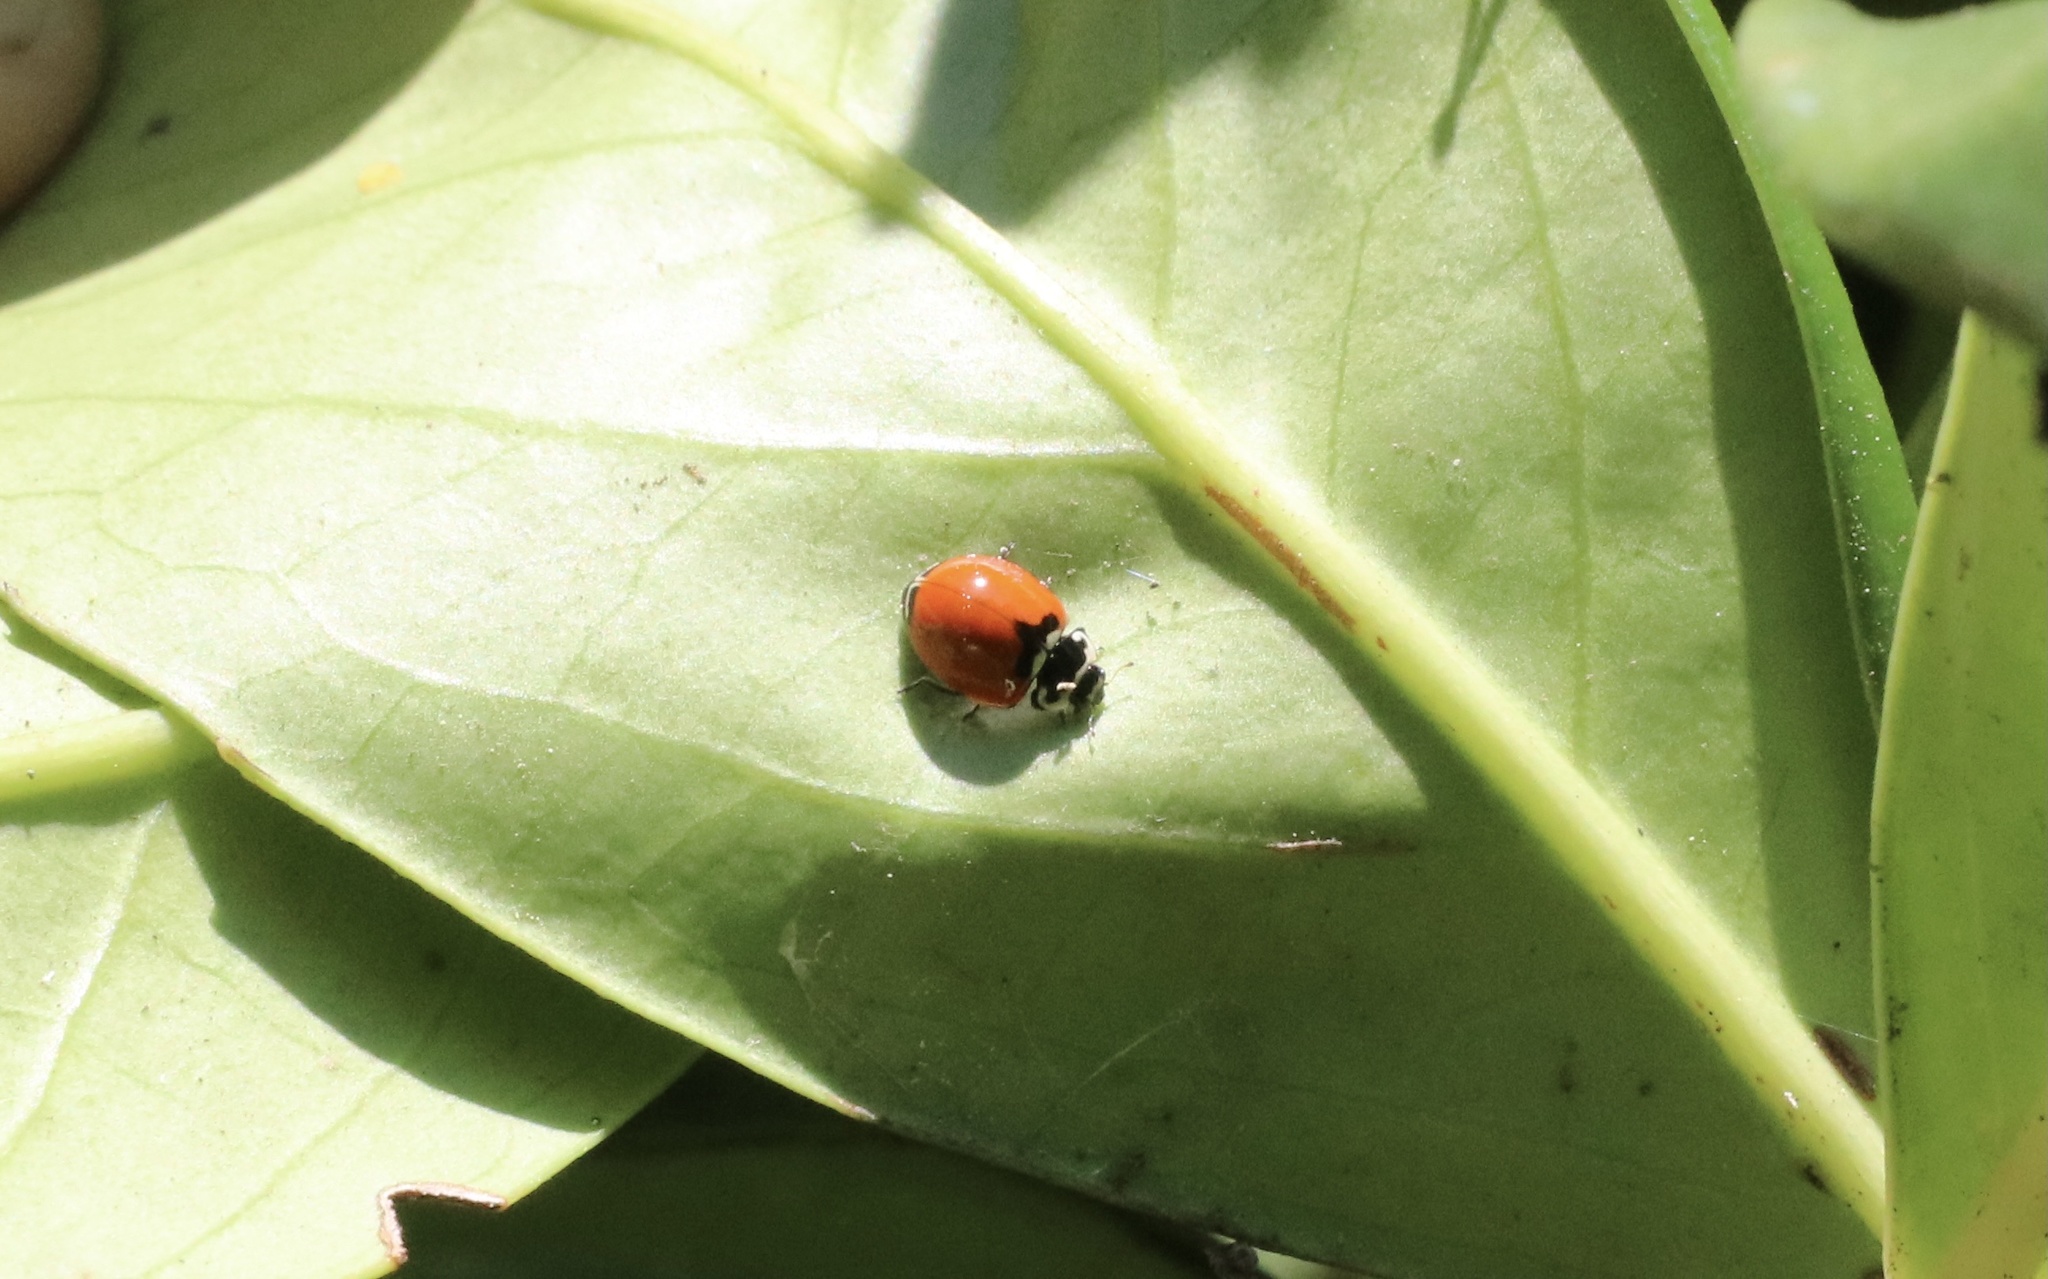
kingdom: Animalia
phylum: Arthropoda
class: Insecta
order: Coleoptera
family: Coccinellidae
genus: Adalia
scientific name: Adalia deficiens
